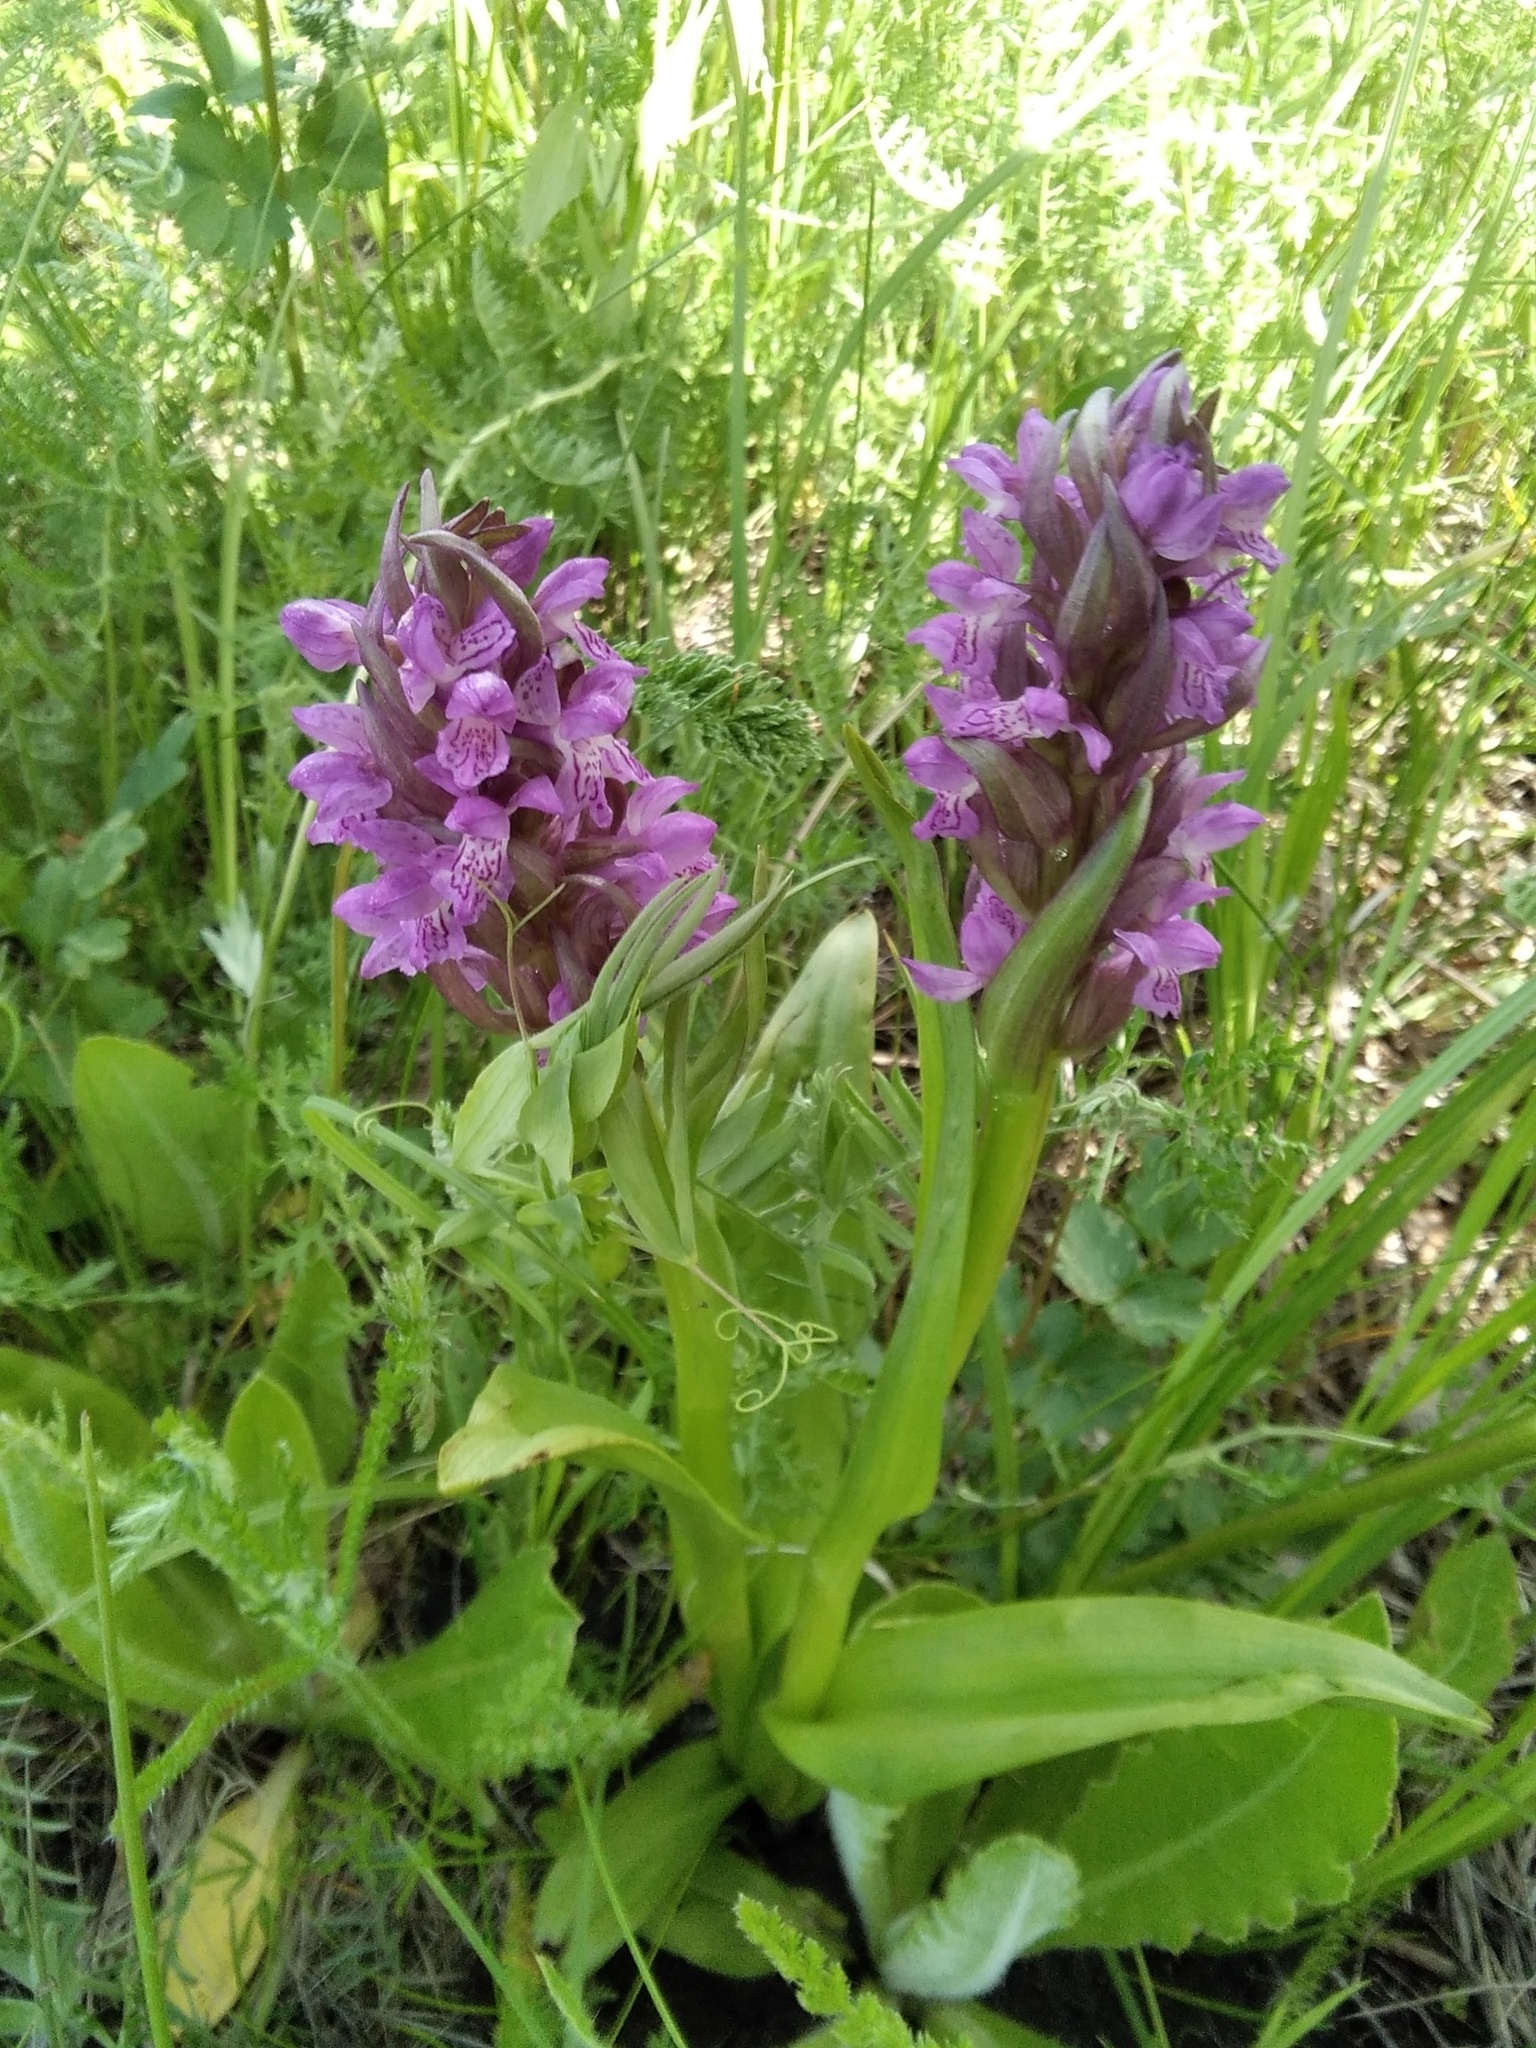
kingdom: Plantae
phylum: Tracheophyta
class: Liliopsida
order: Asparagales
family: Orchidaceae
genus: Dactylorhiza
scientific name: Dactylorhiza incarnata
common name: Early marsh-orchid
